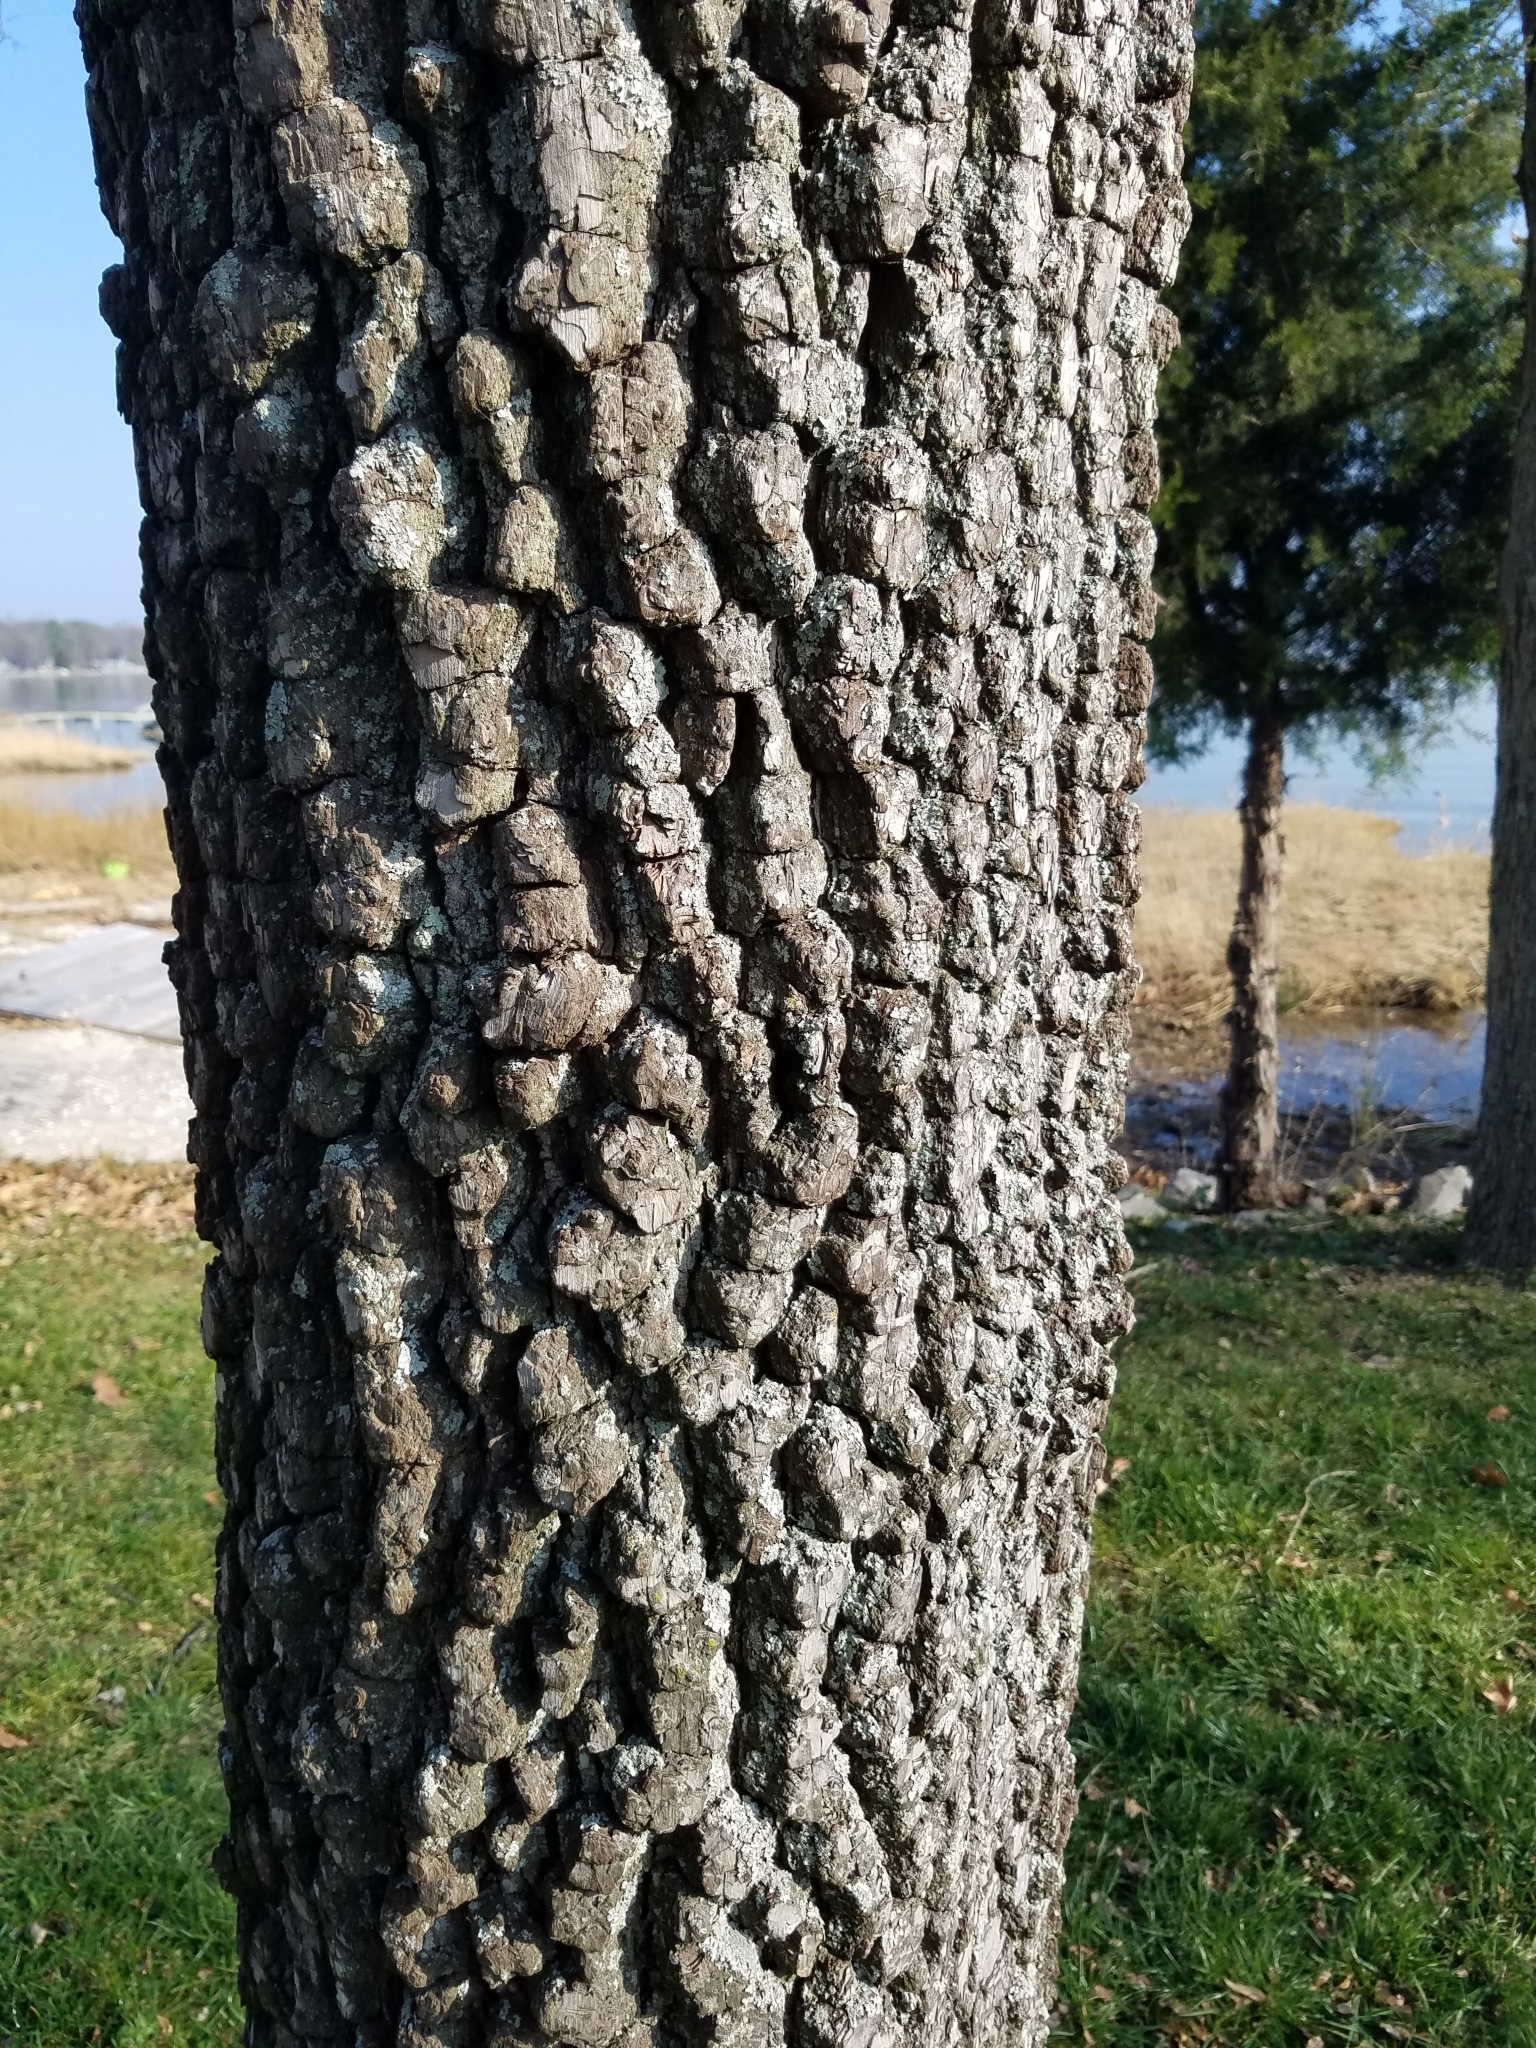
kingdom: Plantae
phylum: Tracheophyta
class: Magnoliopsida
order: Ericales
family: Ebenaceae
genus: Diospyros
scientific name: Diospyros virginiana
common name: Persimmon
